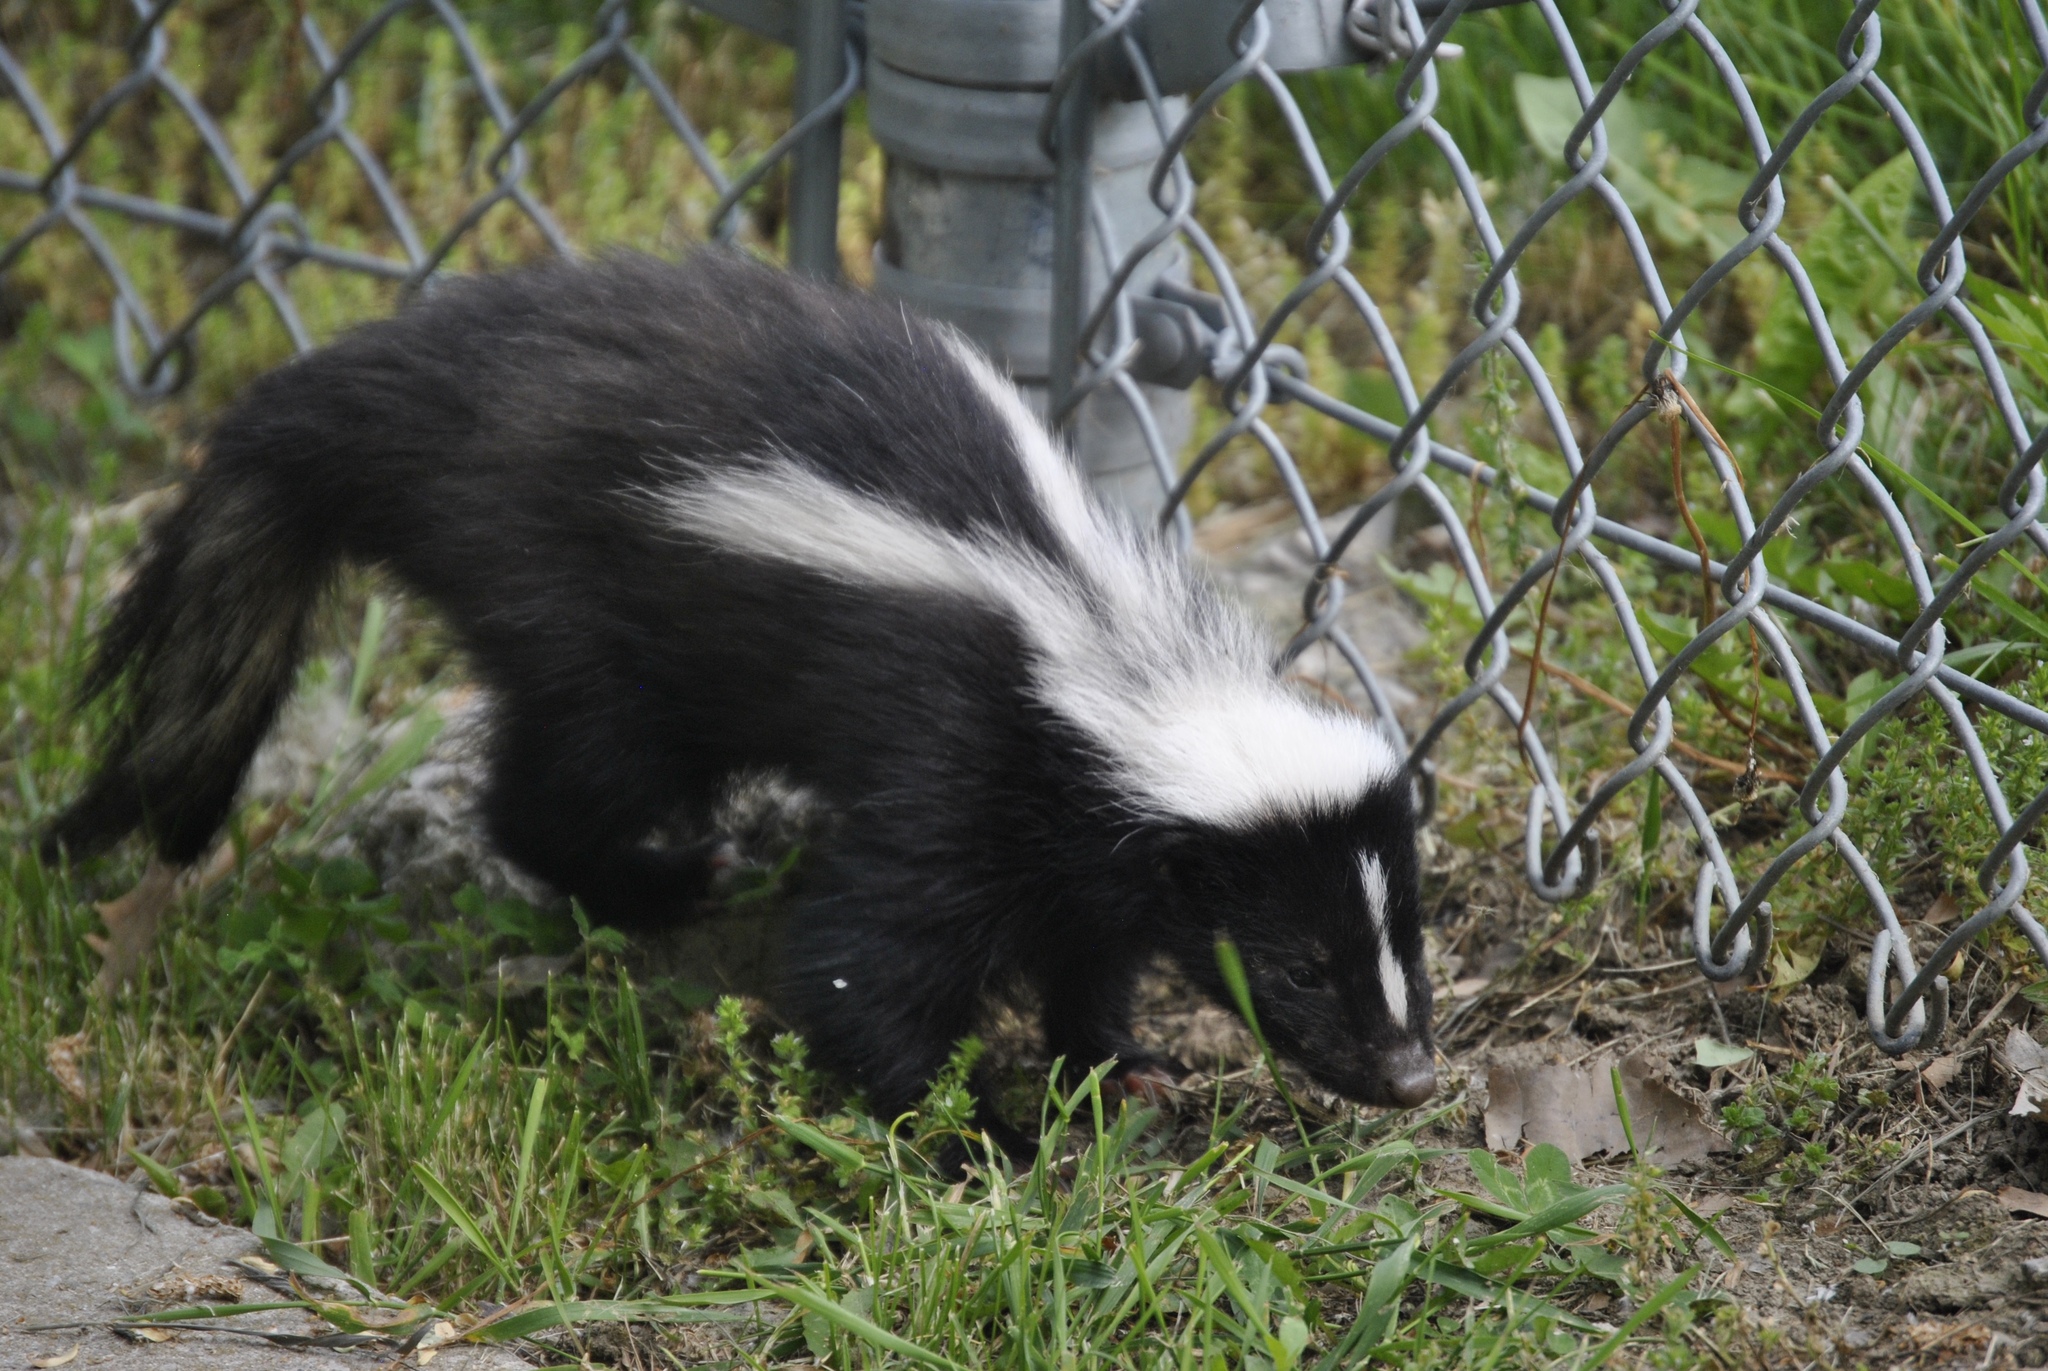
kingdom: Animalia
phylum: Chordata
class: Mammalia
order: Carnivora
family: Mephitidae
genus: Mephitis
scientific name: Mephitis mephitis
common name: Striped skunk
